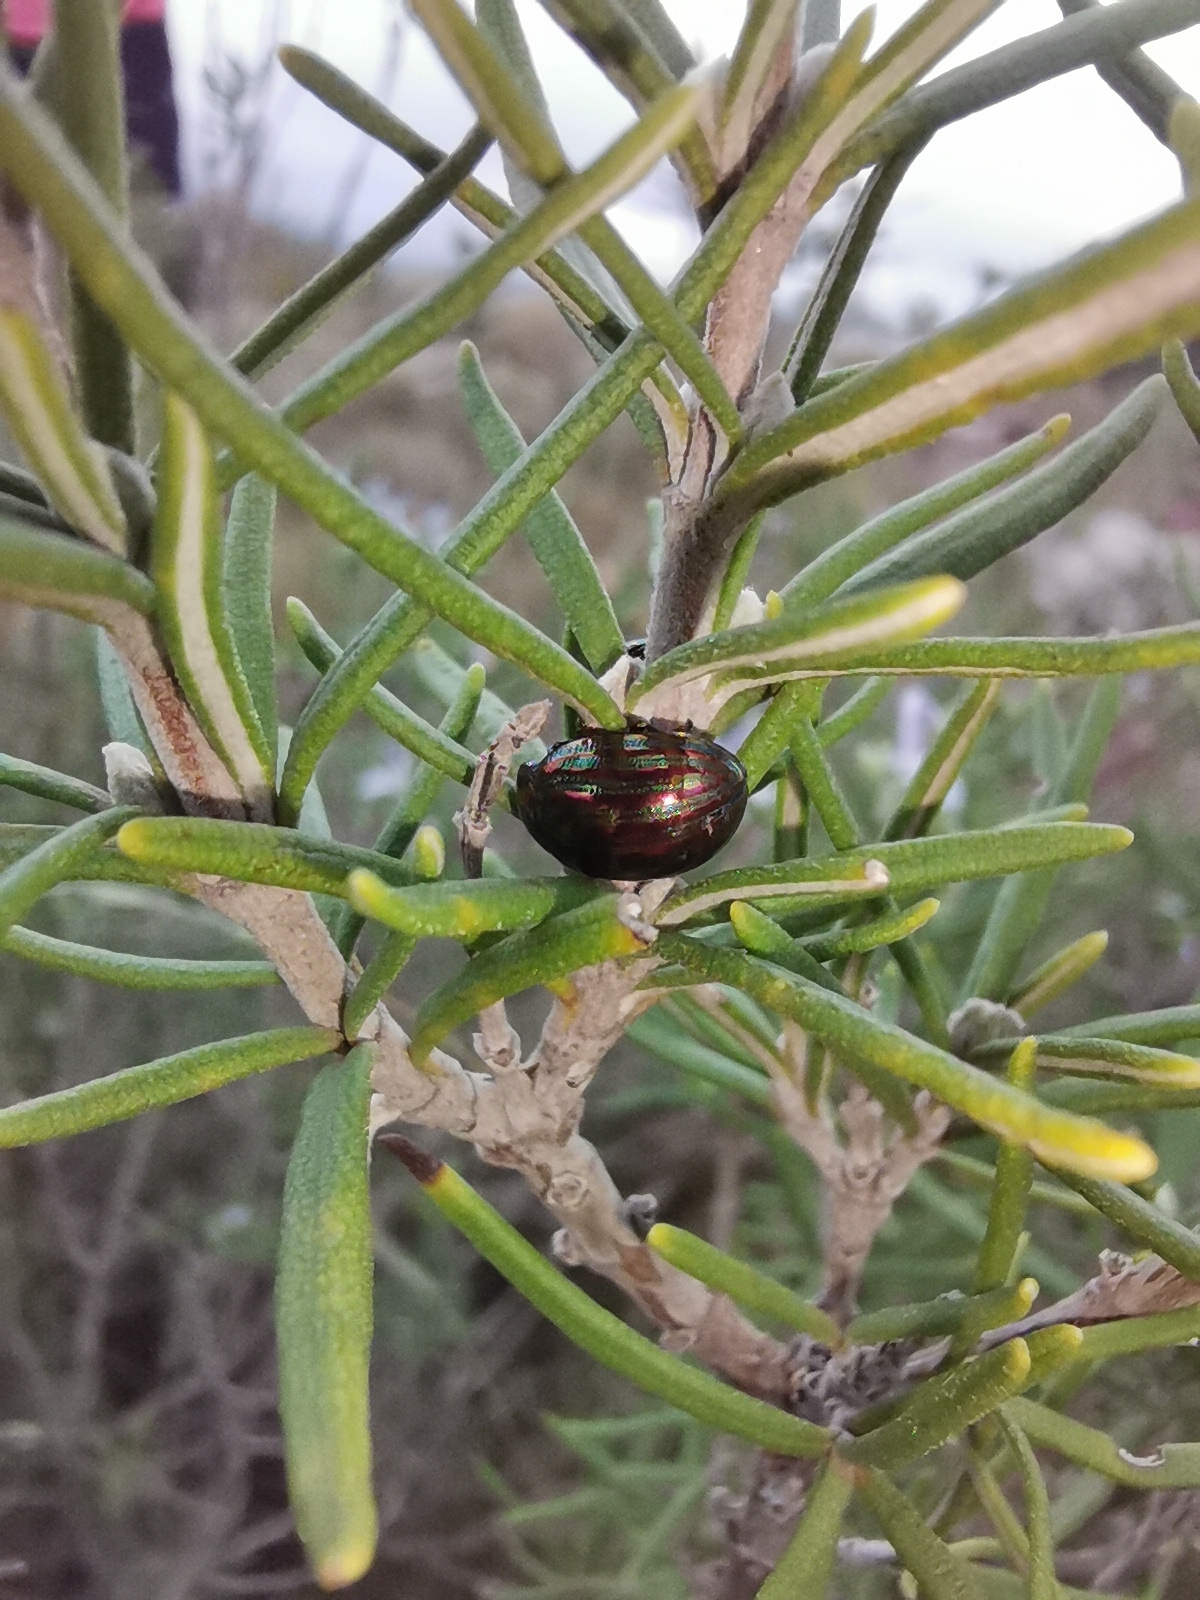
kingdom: Animalia
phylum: Arthropoda
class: Insecta
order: Coleoptera
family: Chrysomelidae
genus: Chrysolina
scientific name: Chrysolina americana
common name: Rosemary beetle
